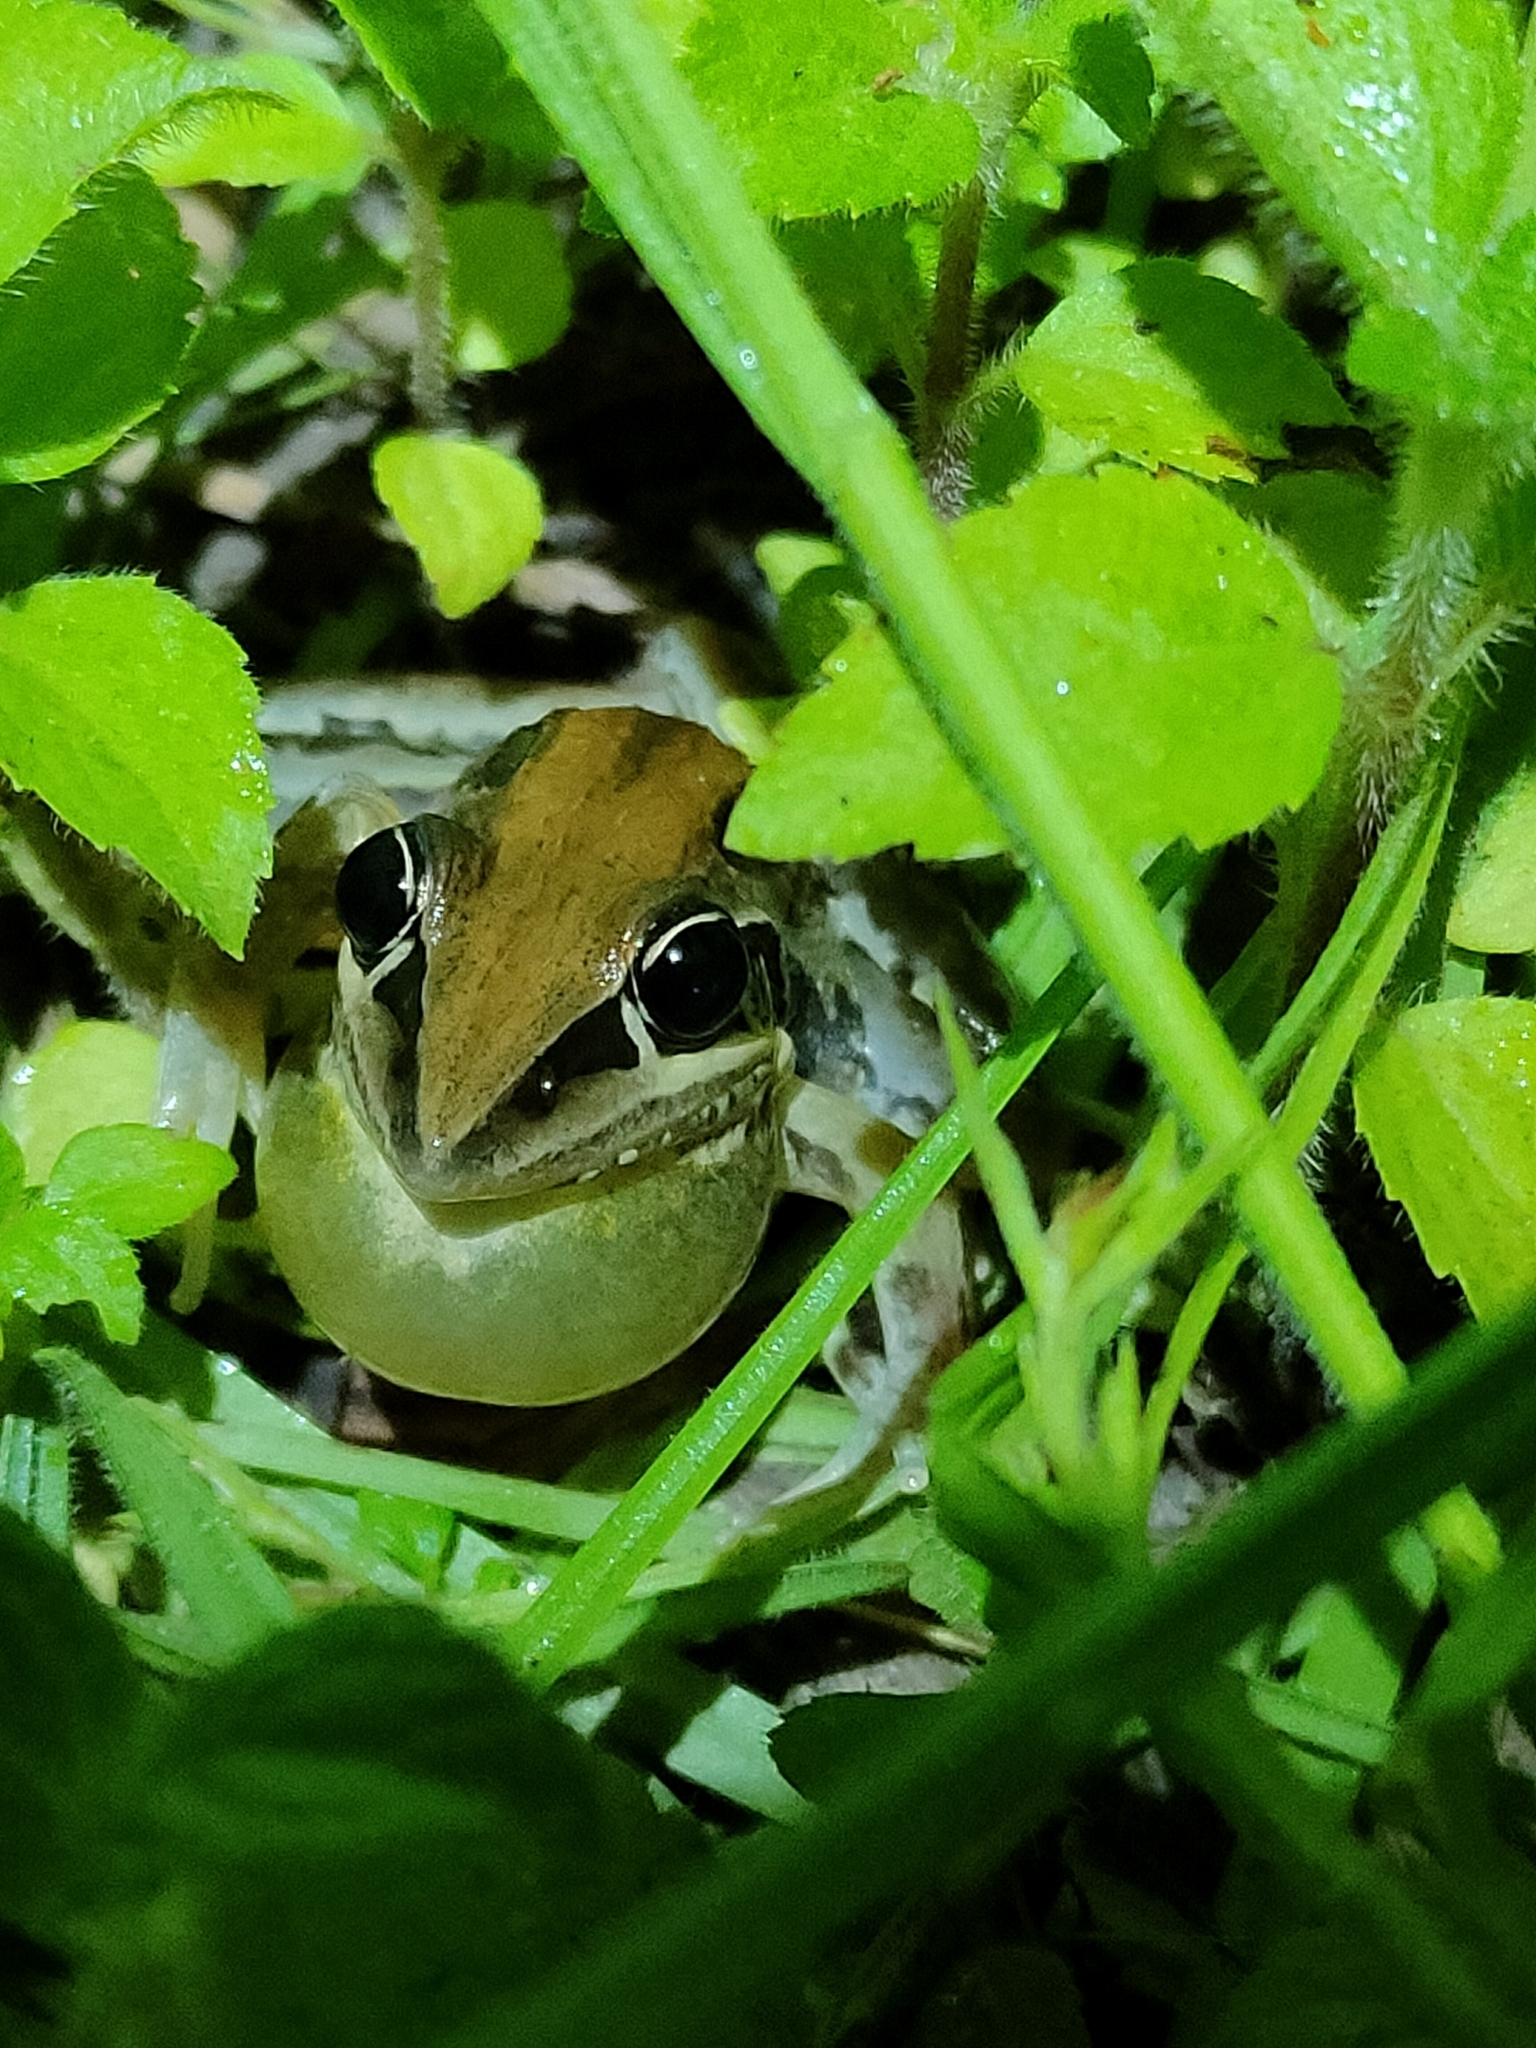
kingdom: Animalia
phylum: Chordata
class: Amphibia
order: Anura
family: Pelodryadidae
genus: Litoria
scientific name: Litoria nasuta
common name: Rocket frog
